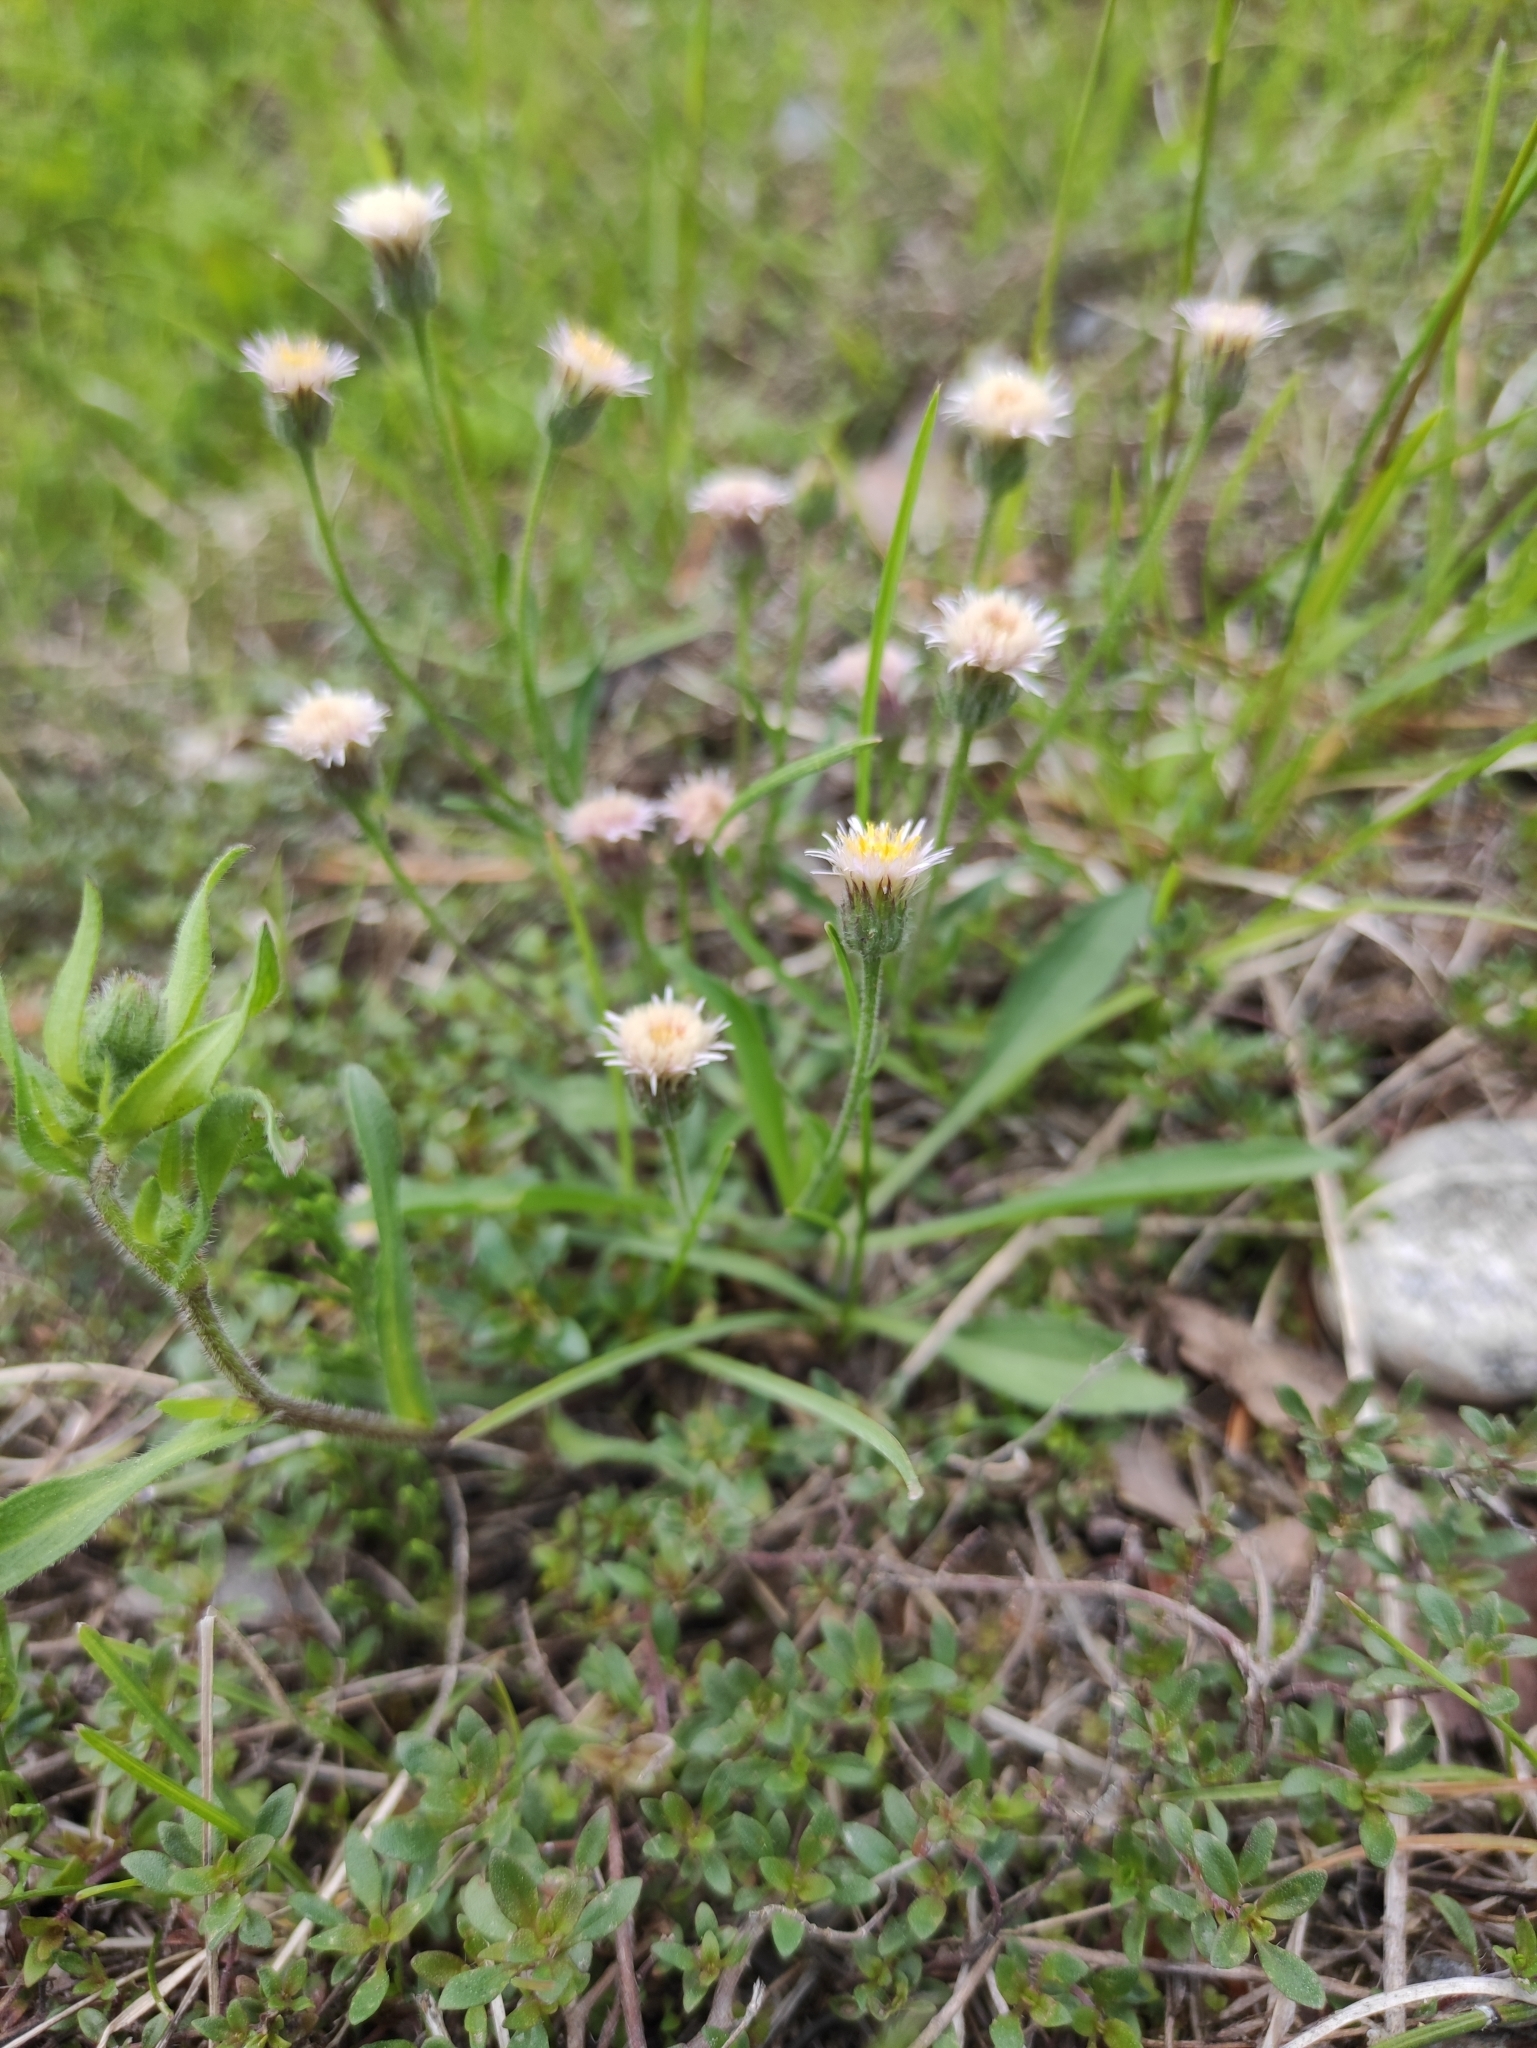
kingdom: Plantae
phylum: Tracheophyta
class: Magnoliopsida
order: Asterales
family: Asteraceae
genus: Erigeron
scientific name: Erigeron acris
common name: Blue fleabane
